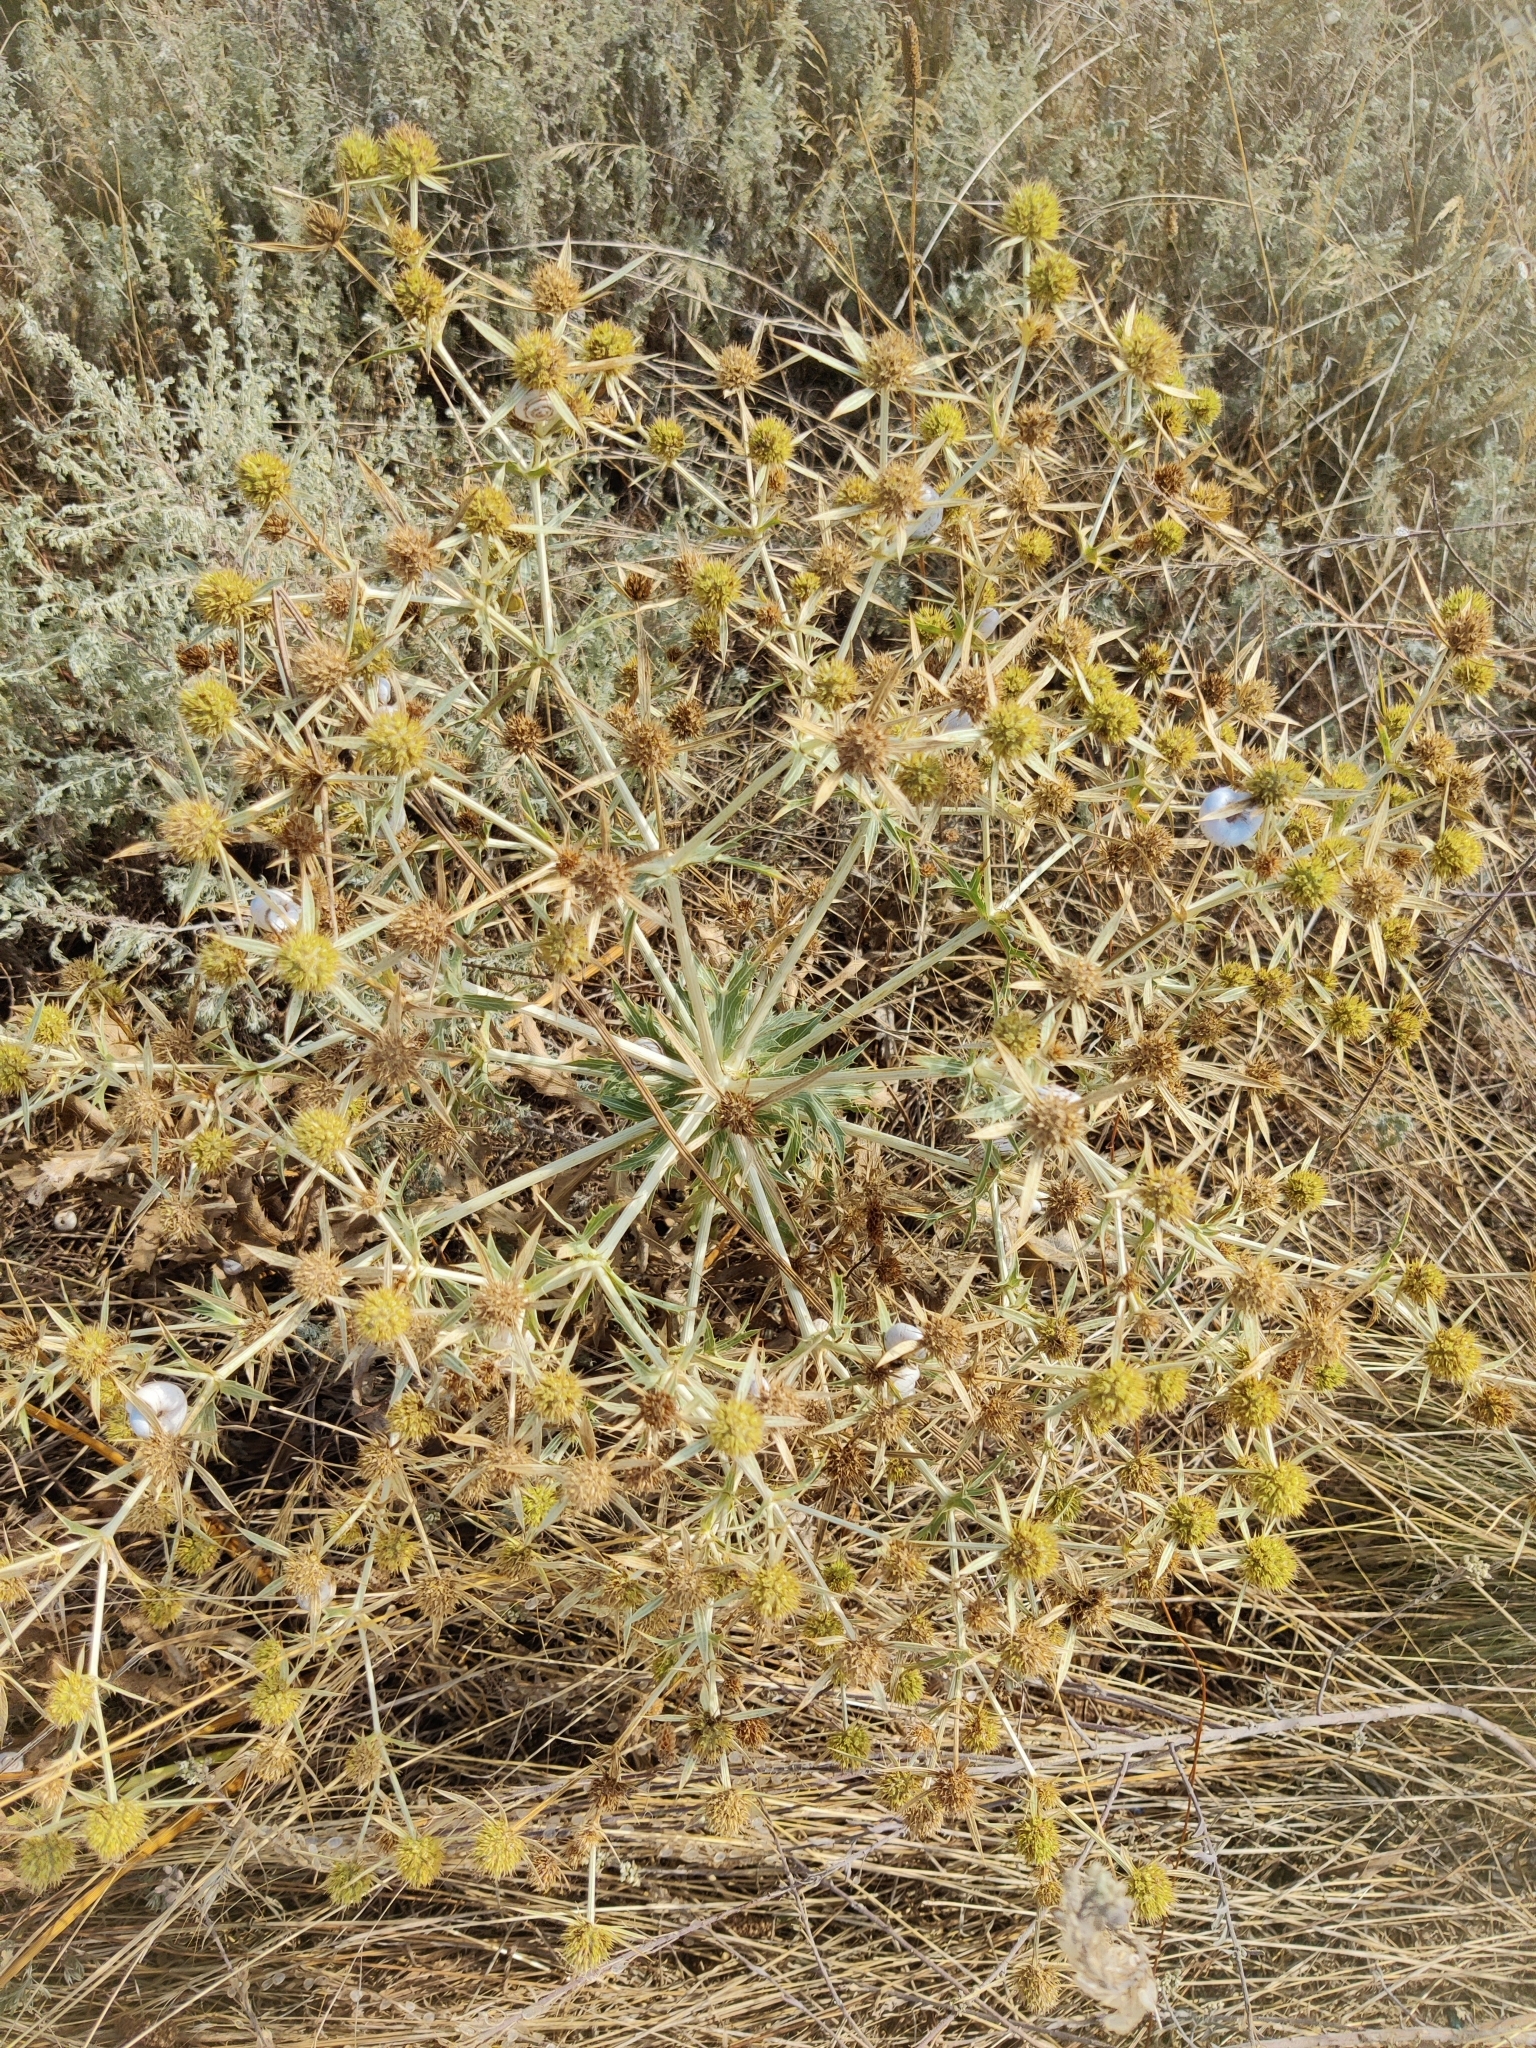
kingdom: Plantae
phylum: Tracheophyta
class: Magnoliopsida
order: Apiales
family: Apiaceae
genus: Eryngium
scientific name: Eryngium campestre
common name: Field eryngo
